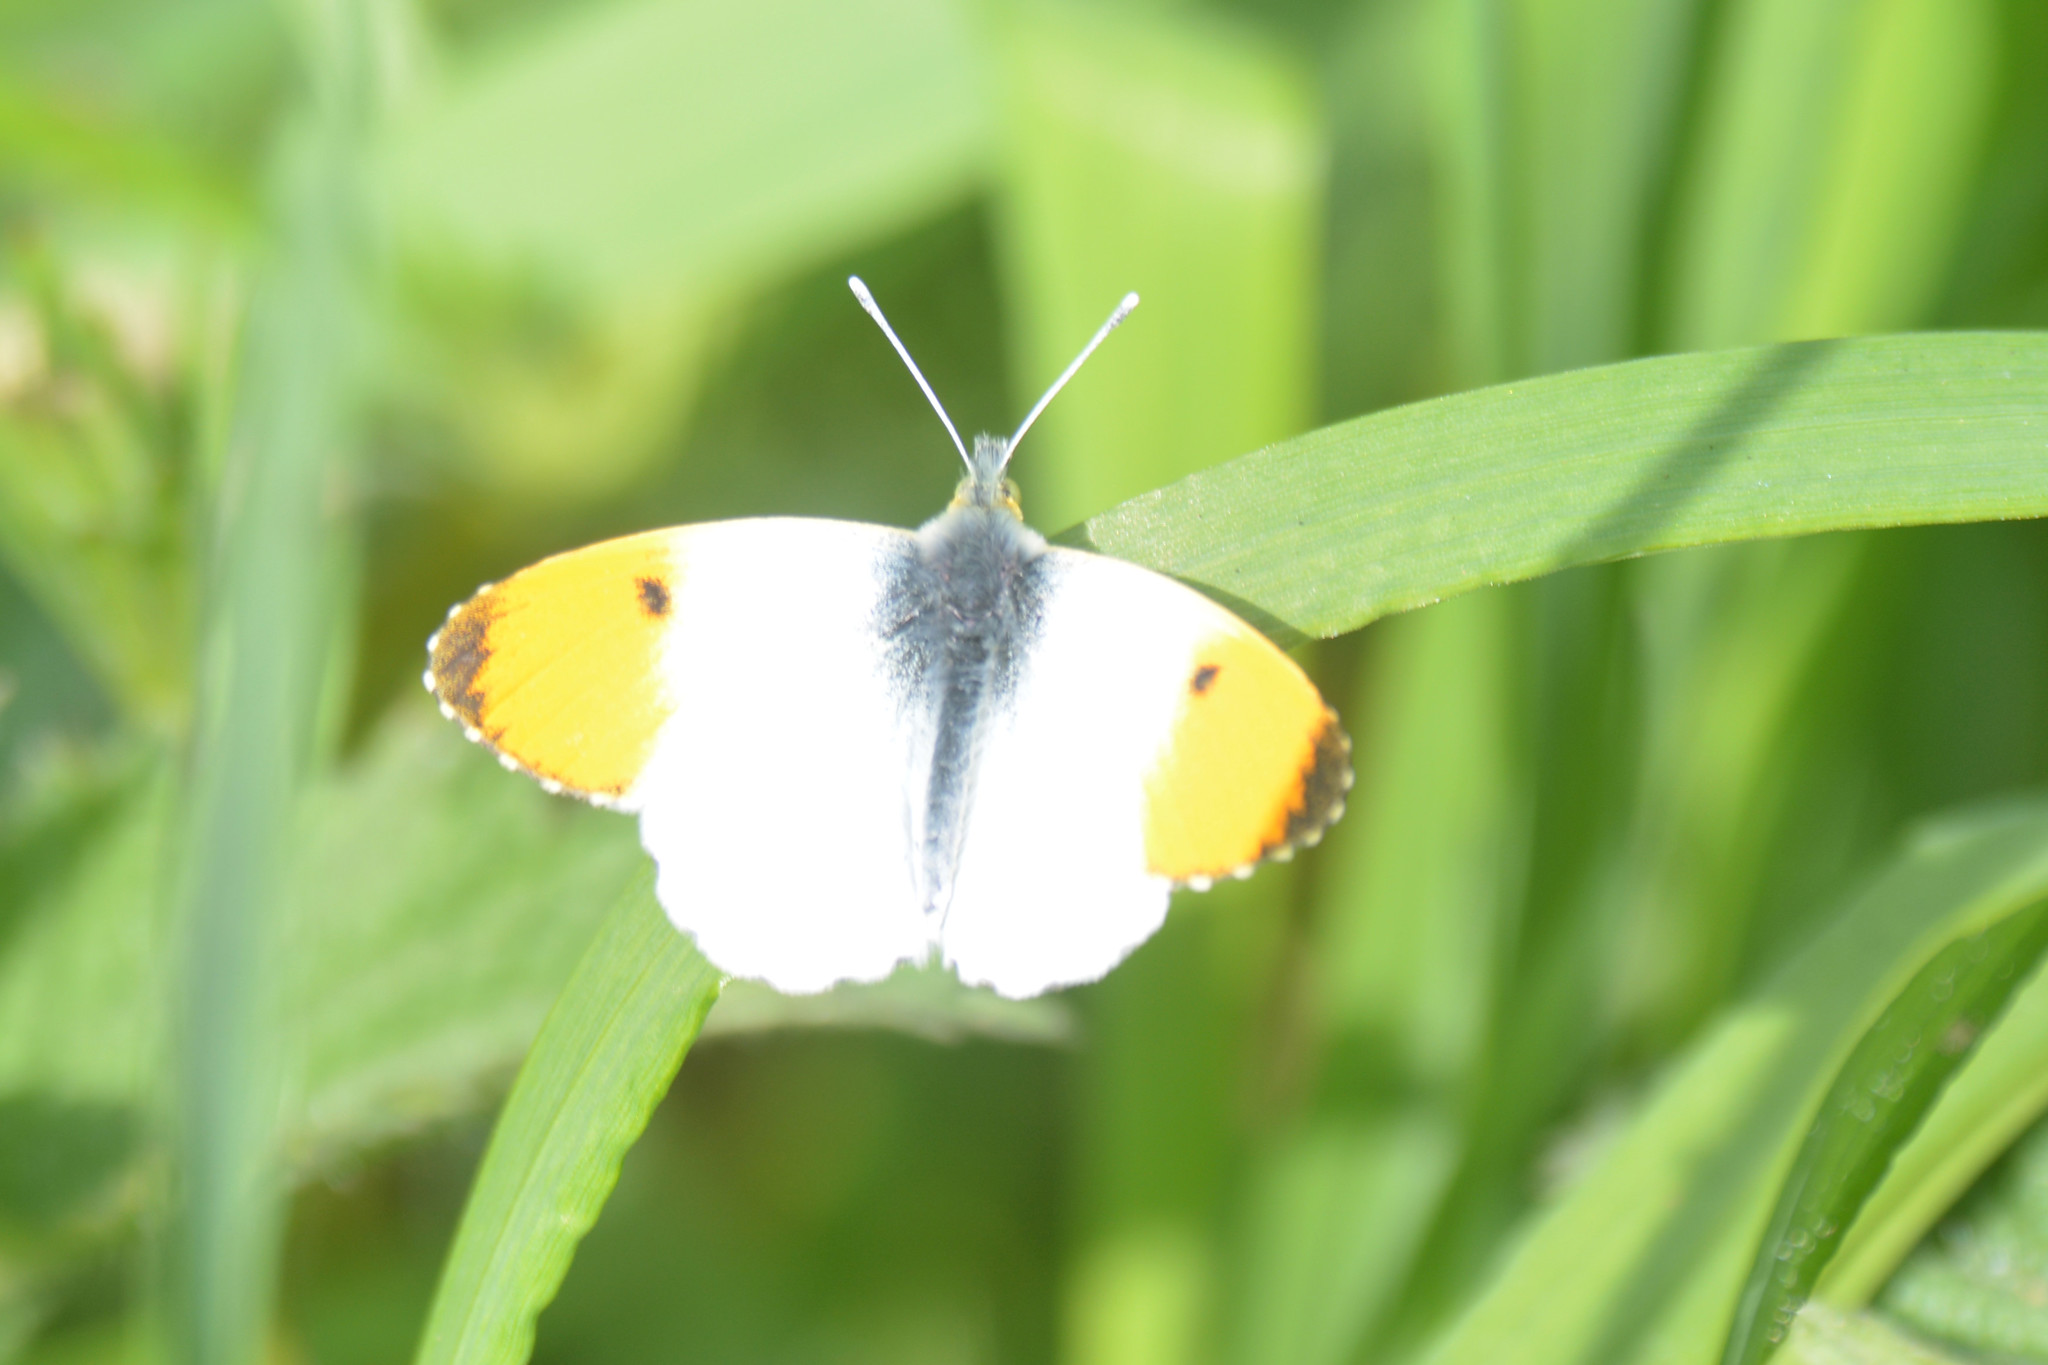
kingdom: Animalia
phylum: Arthropoda
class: Insecta
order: Lepidoptera
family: Pieridae
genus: Anthocharis
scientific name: Anthocharis cardamines
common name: Orange-tip
